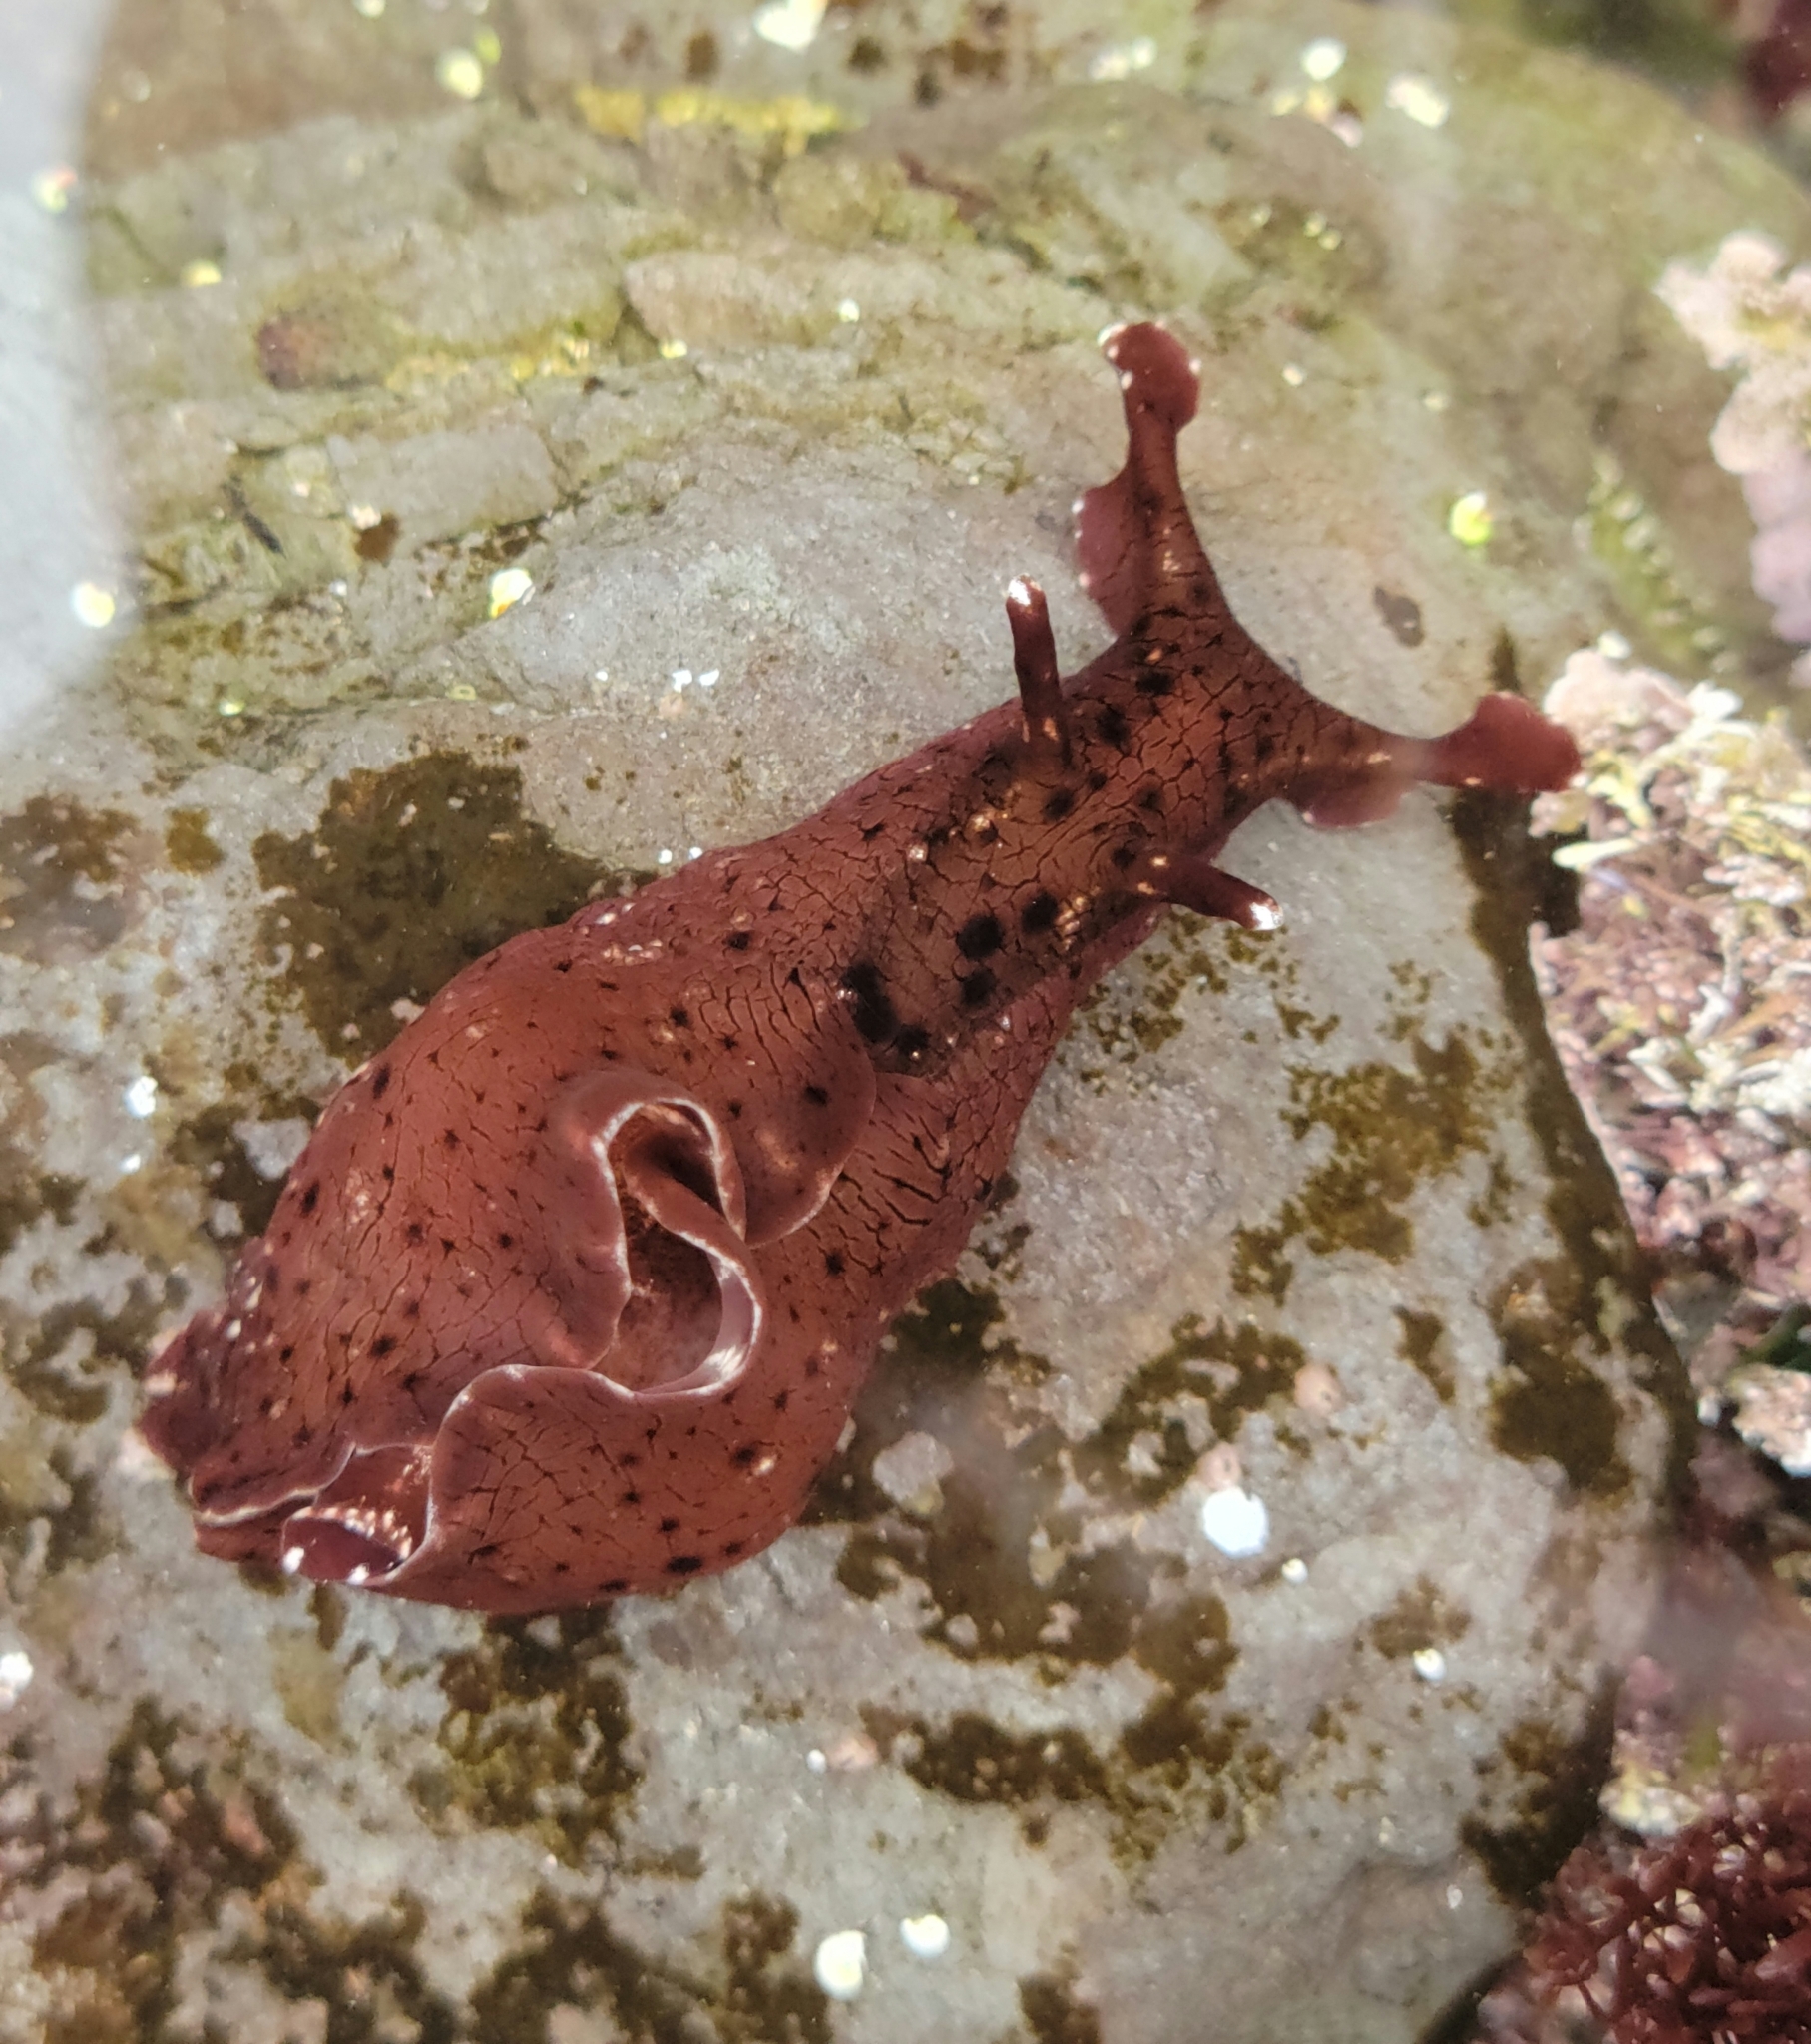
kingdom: Animalia
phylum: Mollusca
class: Gastropoda
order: Aplysiida
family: Aplysiidae
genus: Aplysia
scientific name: Aplysia californica
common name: California seahare
